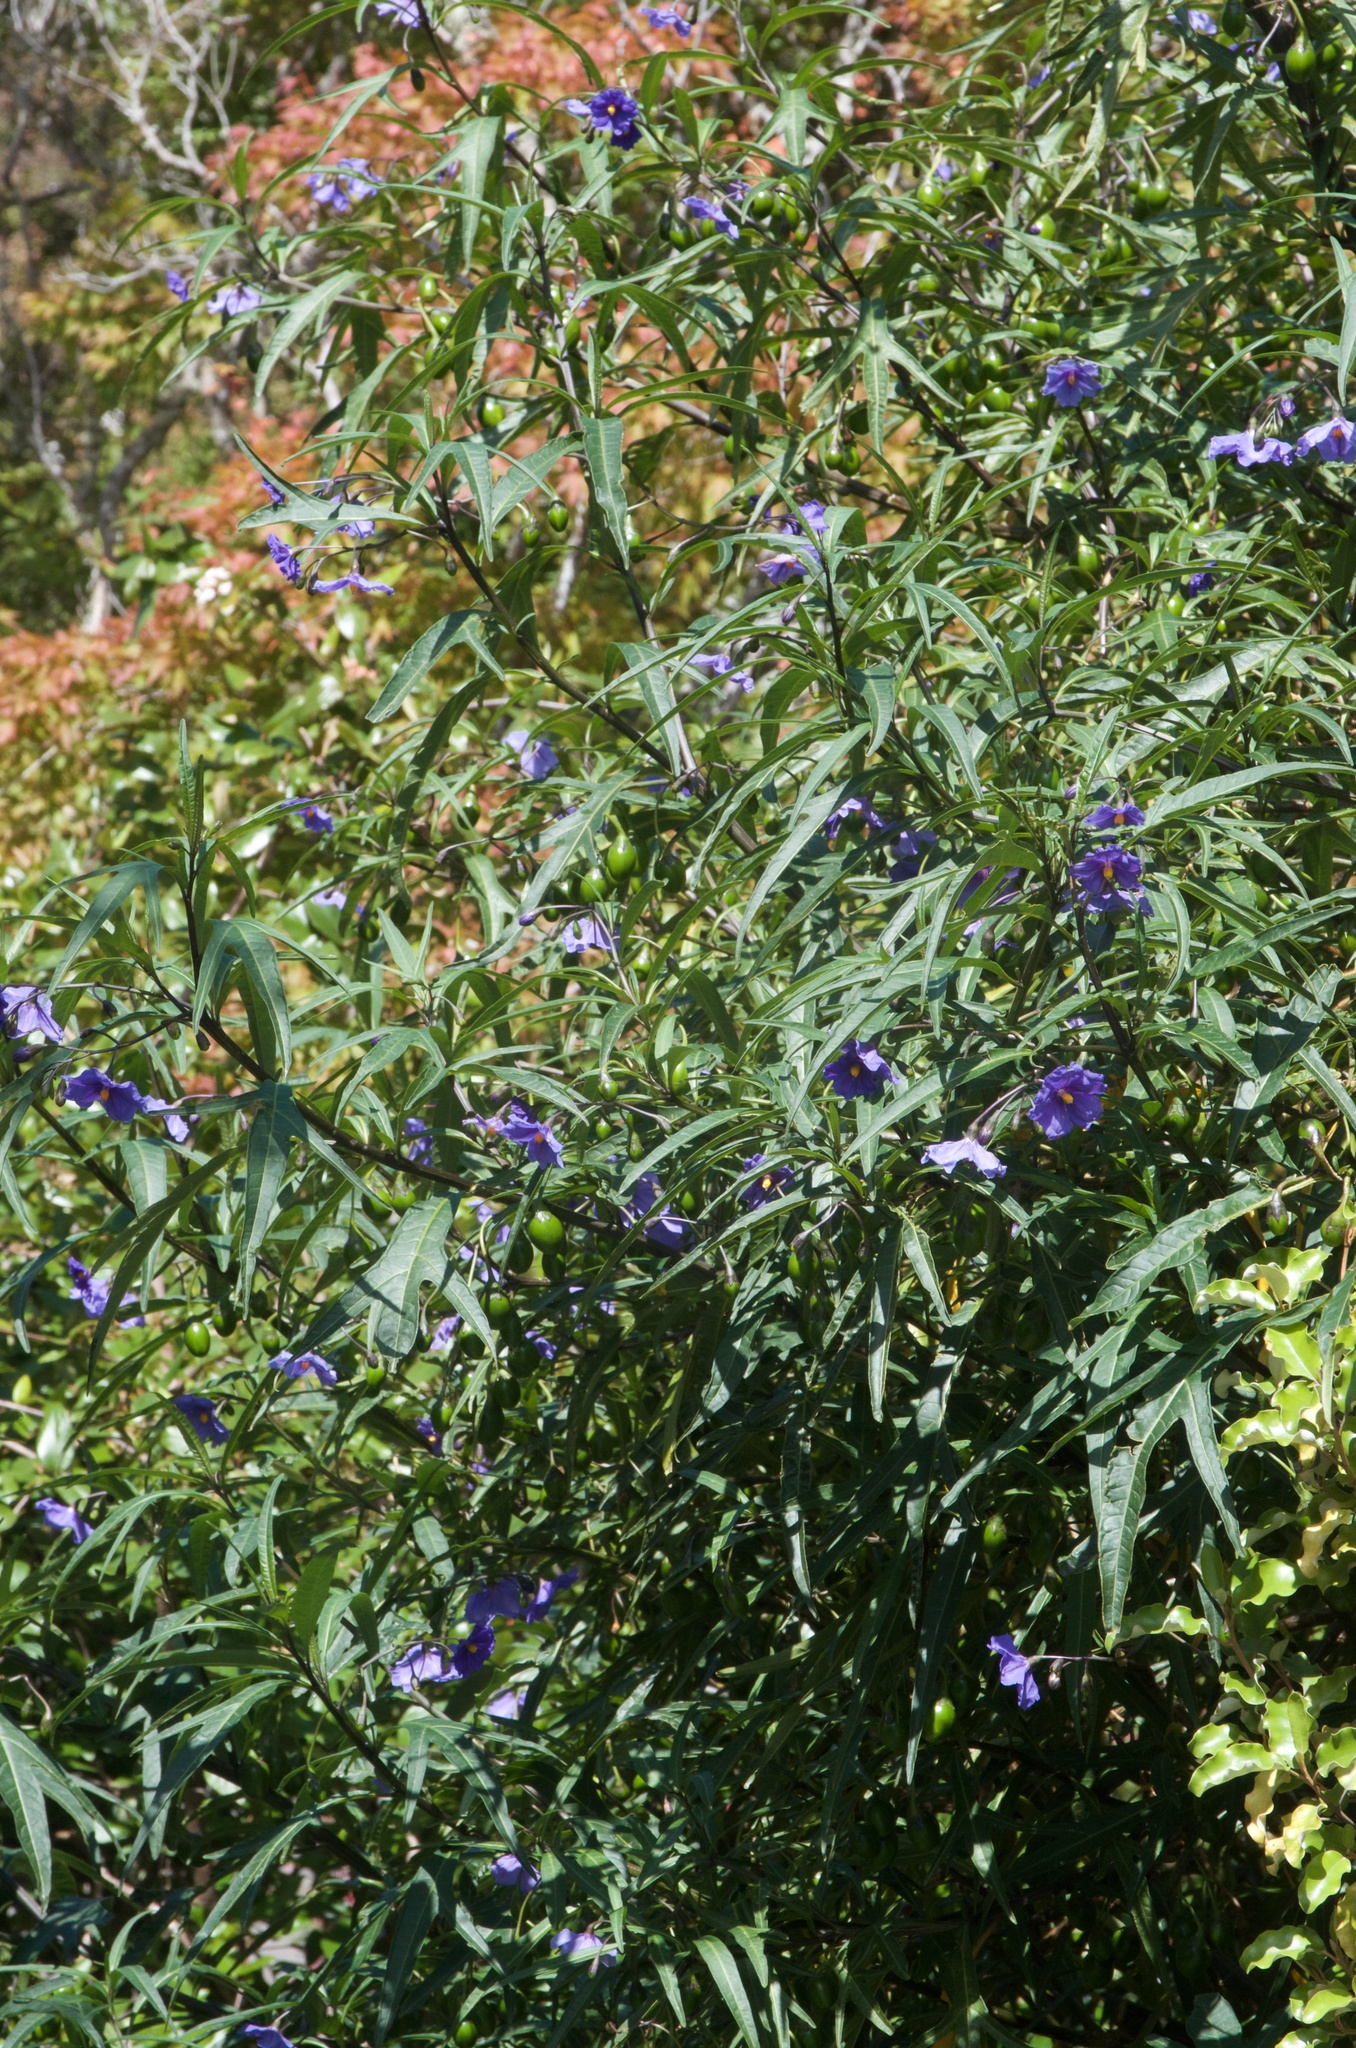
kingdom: Plantae
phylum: Tracheophyta
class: Magnoliopsida
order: Solanales
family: Solanaceae
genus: Solanum
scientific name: Solanum laciniatum
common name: Kangaroo-apple
